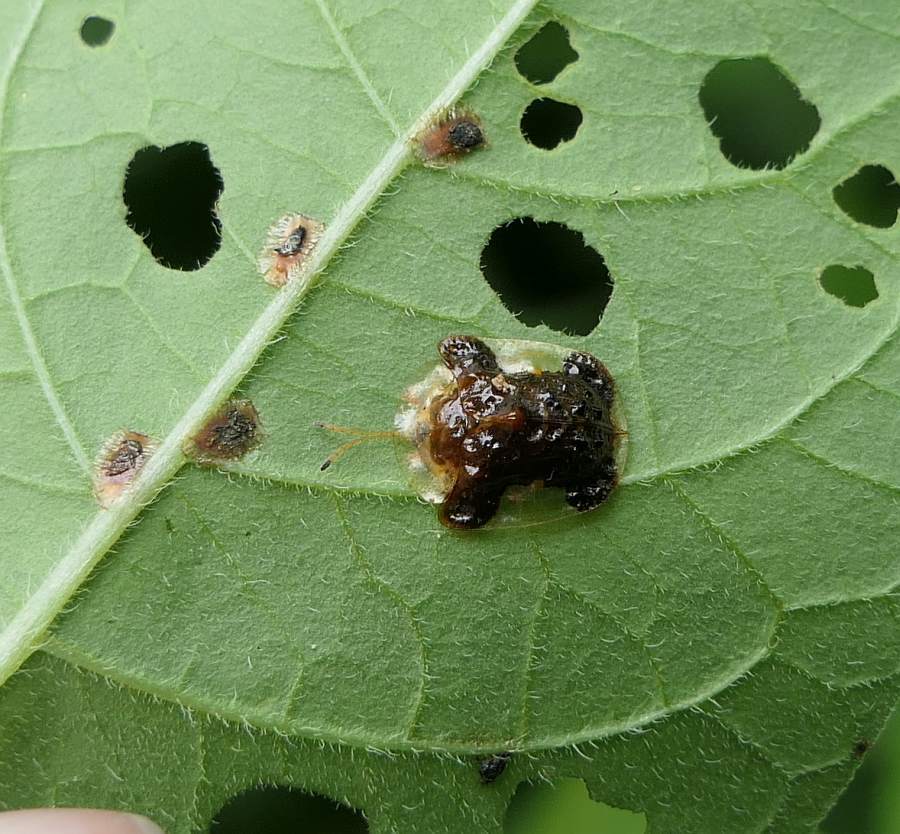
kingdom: Animalia
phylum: Arthropoda
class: Insecta
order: Coleoptera
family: Chrysomelidae
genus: Helocassis
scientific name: Helocassis clavata
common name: Clavate tortoise beetle
